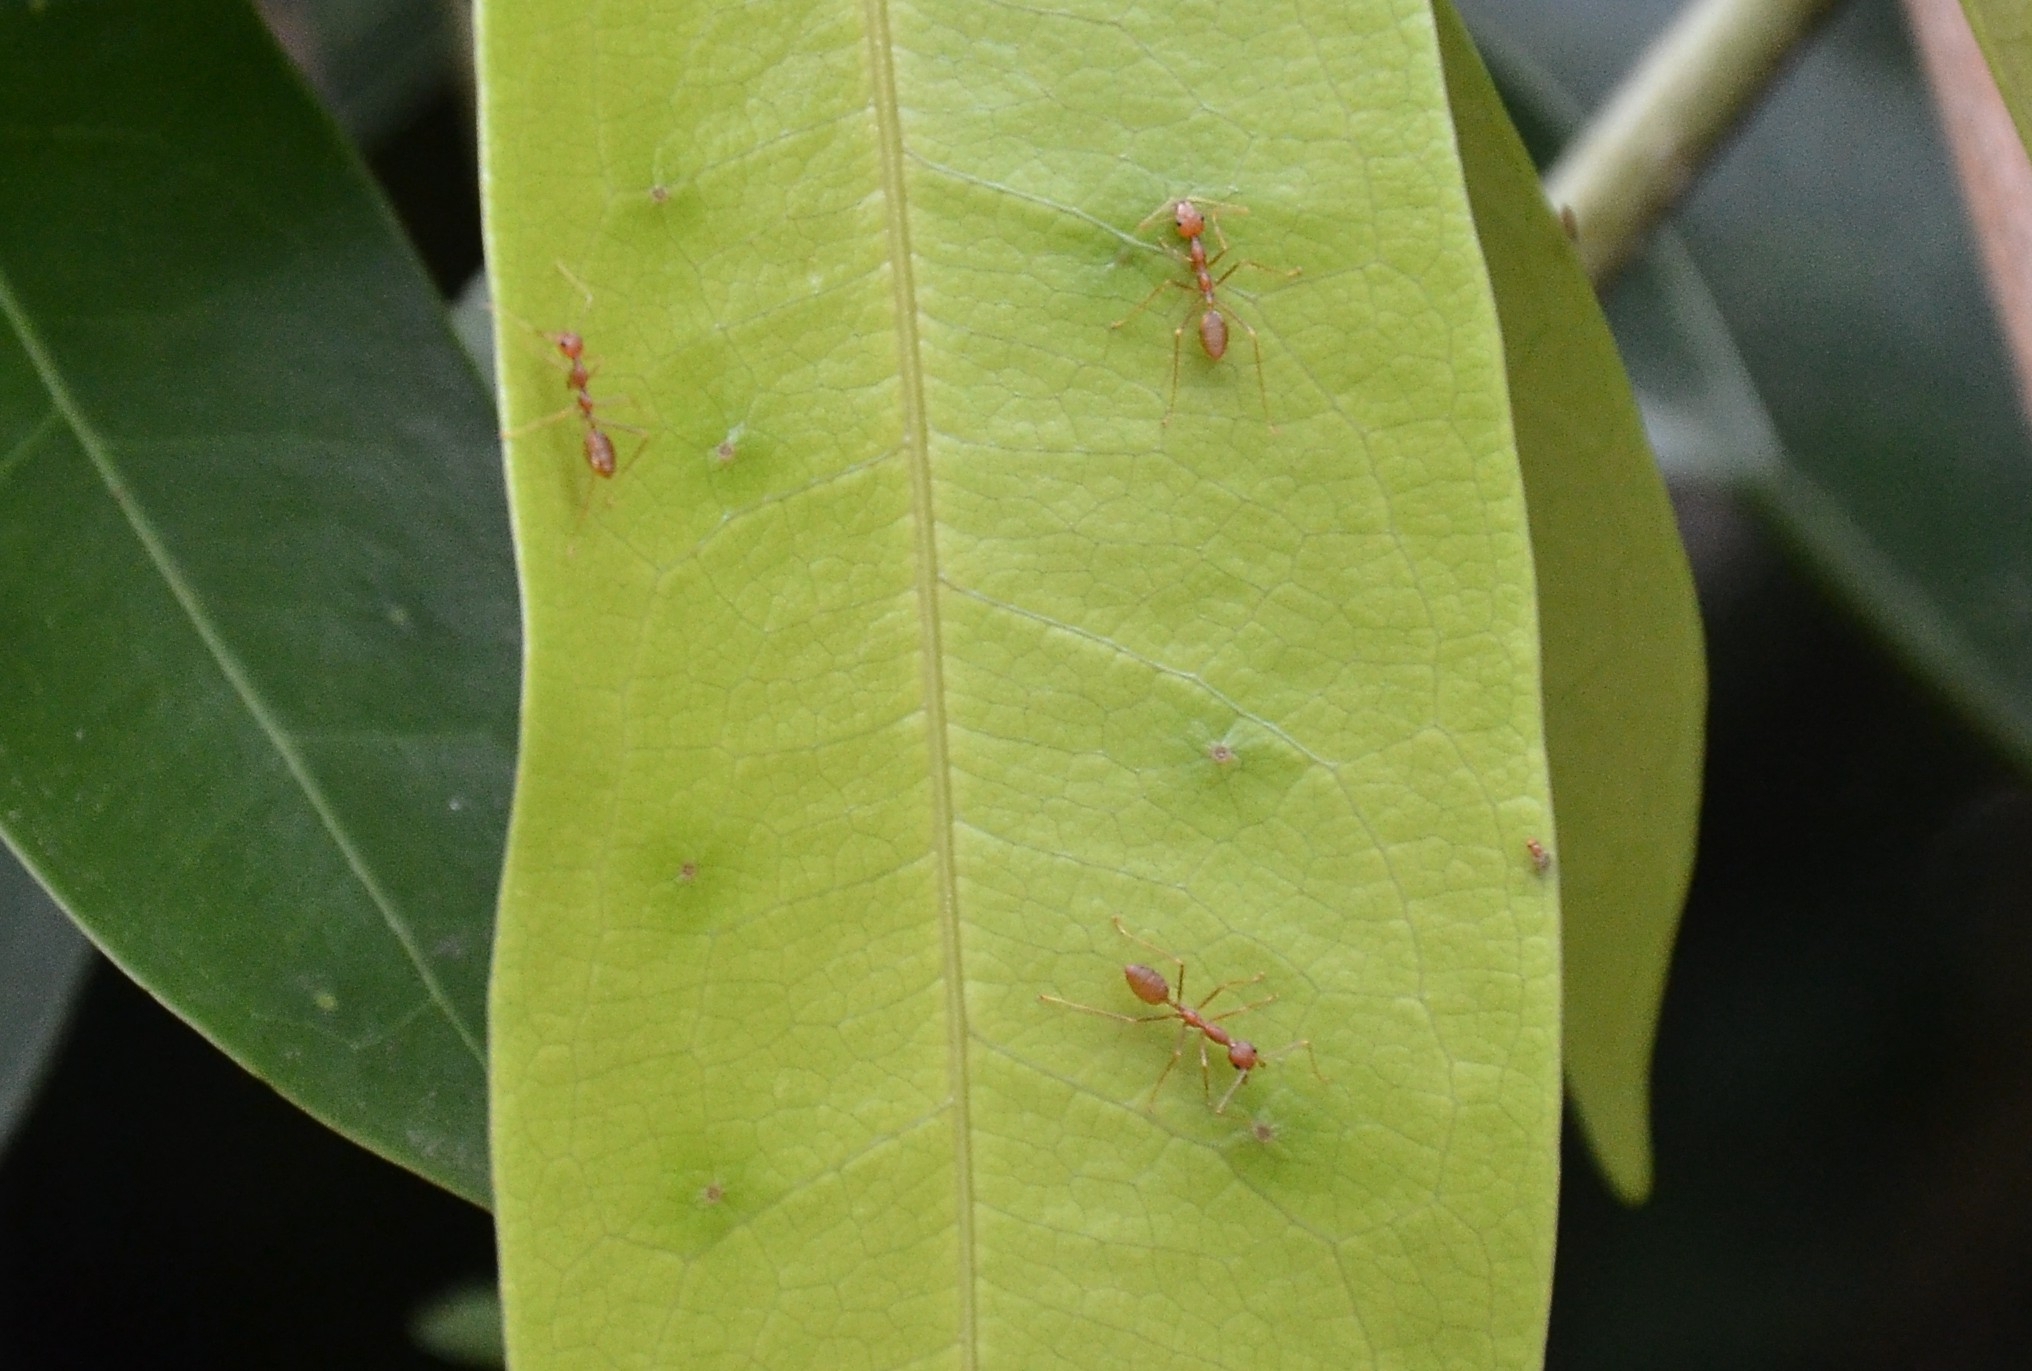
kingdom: Animalia
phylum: Arthropoda
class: Insecta
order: Hymenoptera
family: Formicidae
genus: Oecophylla
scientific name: Oecophylla smaragdina
